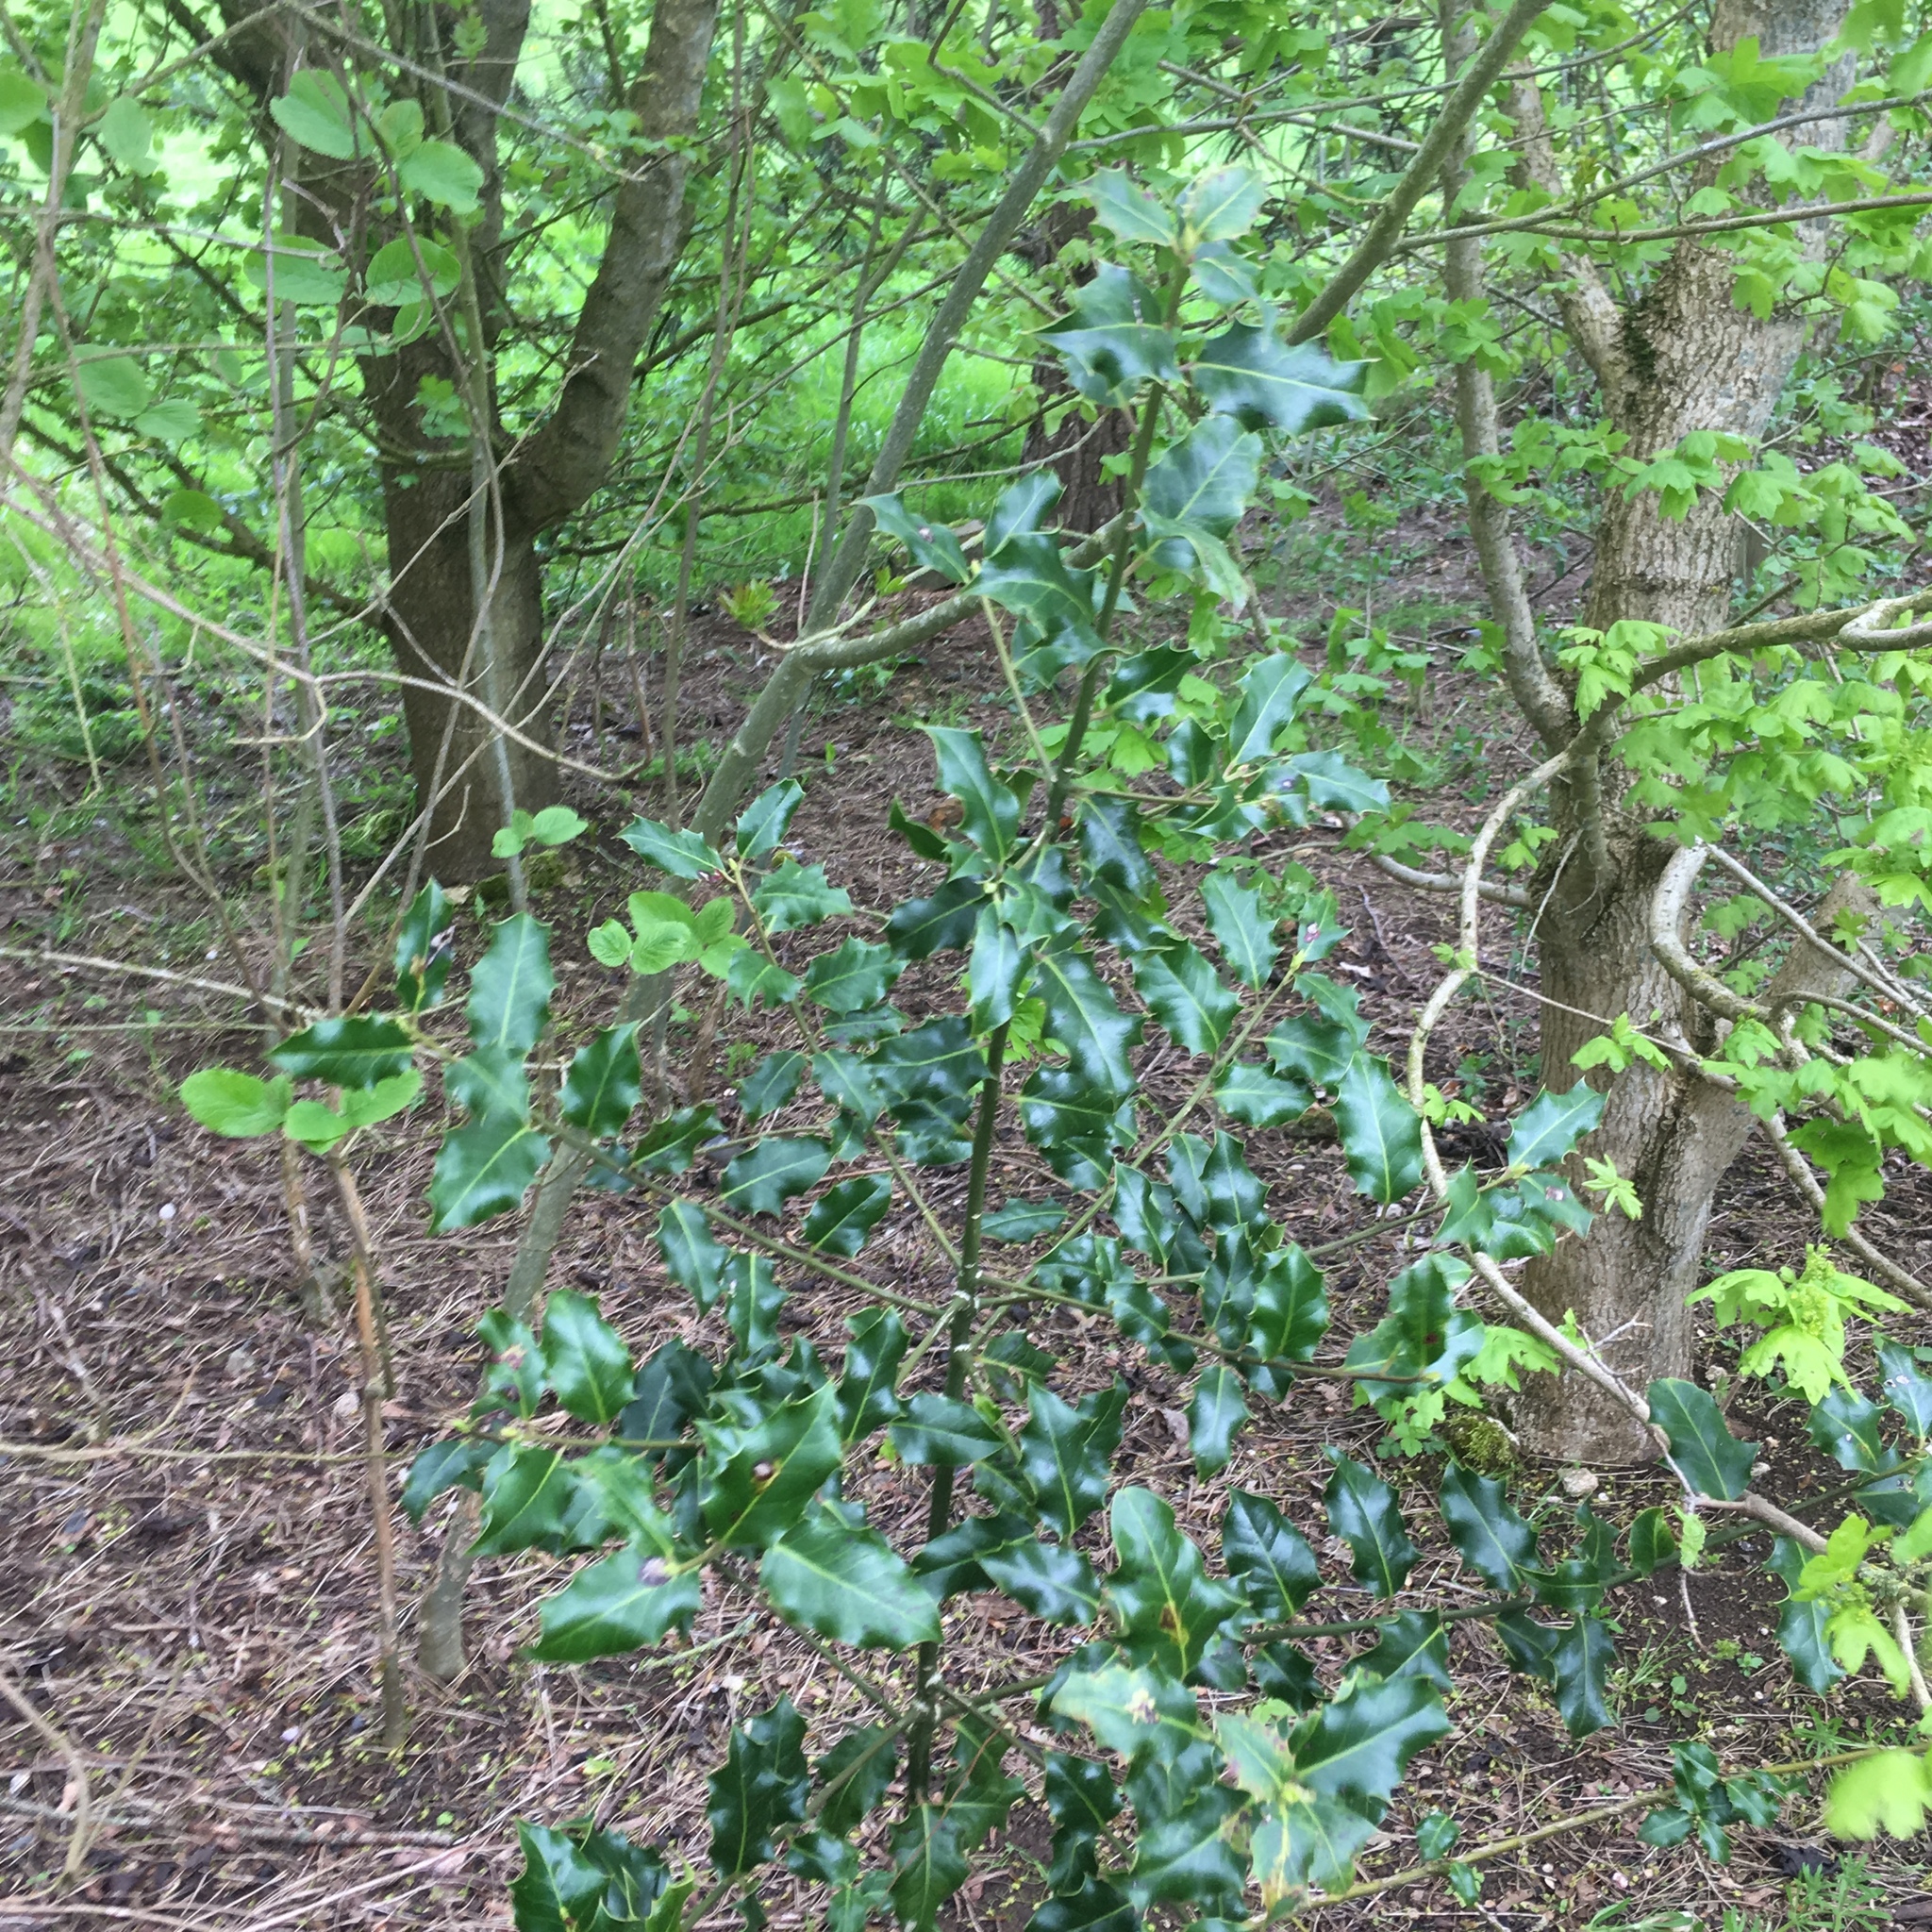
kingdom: Plantae
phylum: Tracheophyta
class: Magnoliopsida
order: Aquifoliales
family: Aquifoliaceae
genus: Ilex
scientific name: Ilex aquifolium
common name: English holly
